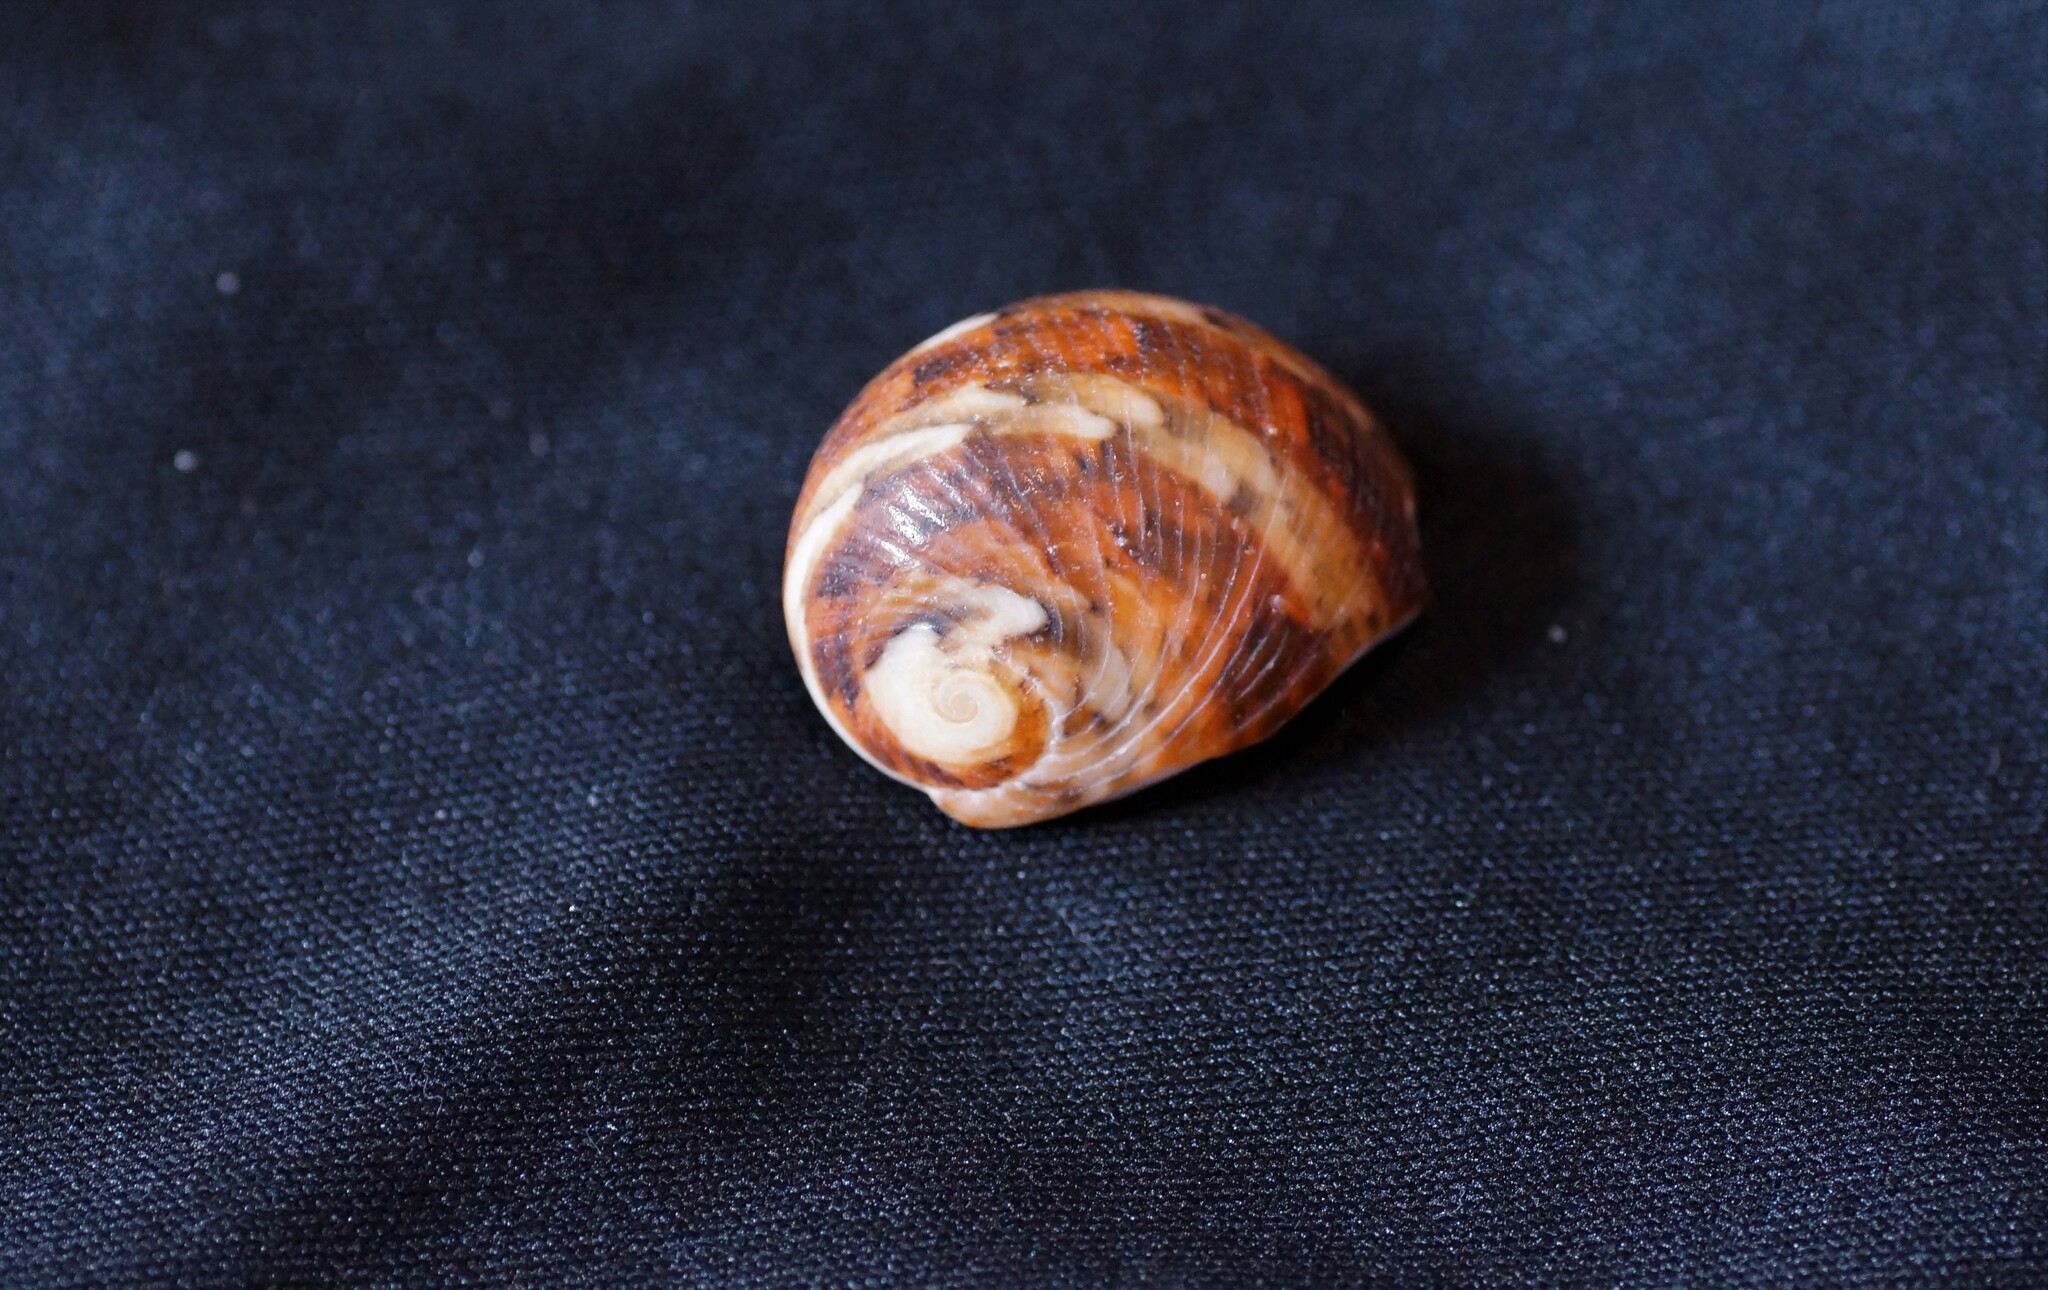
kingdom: Animalia
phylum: Mollusca
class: Gastropoda
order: Cycloneritida
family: Neritidae
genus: Nerita
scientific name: Nerita polita
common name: Polished nerite
